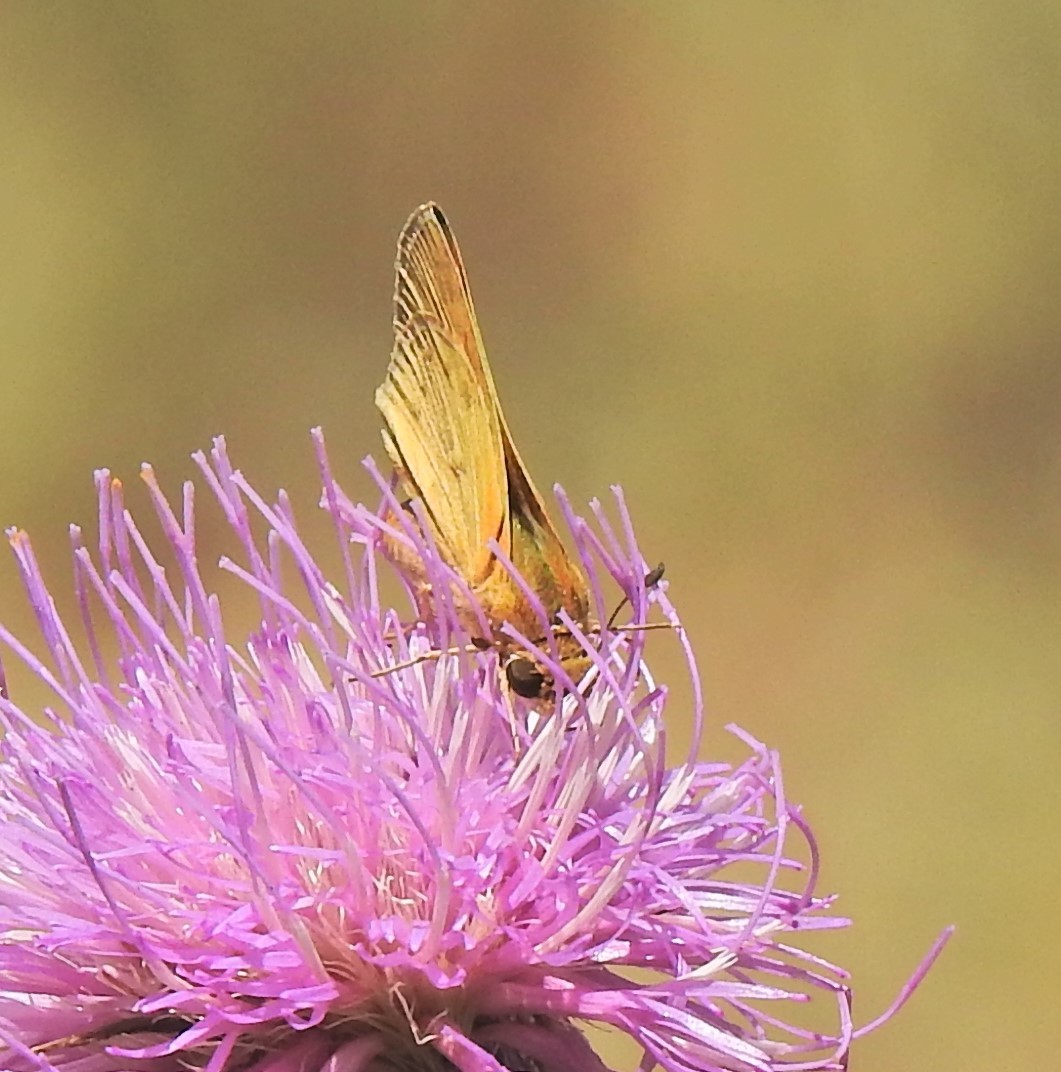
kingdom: Animalia
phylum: Arthropoda
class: Insecta
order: Lepidoptera
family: Hesperiidae
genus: Hylephila
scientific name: Hylephila phyleus
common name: Fiery skipper
